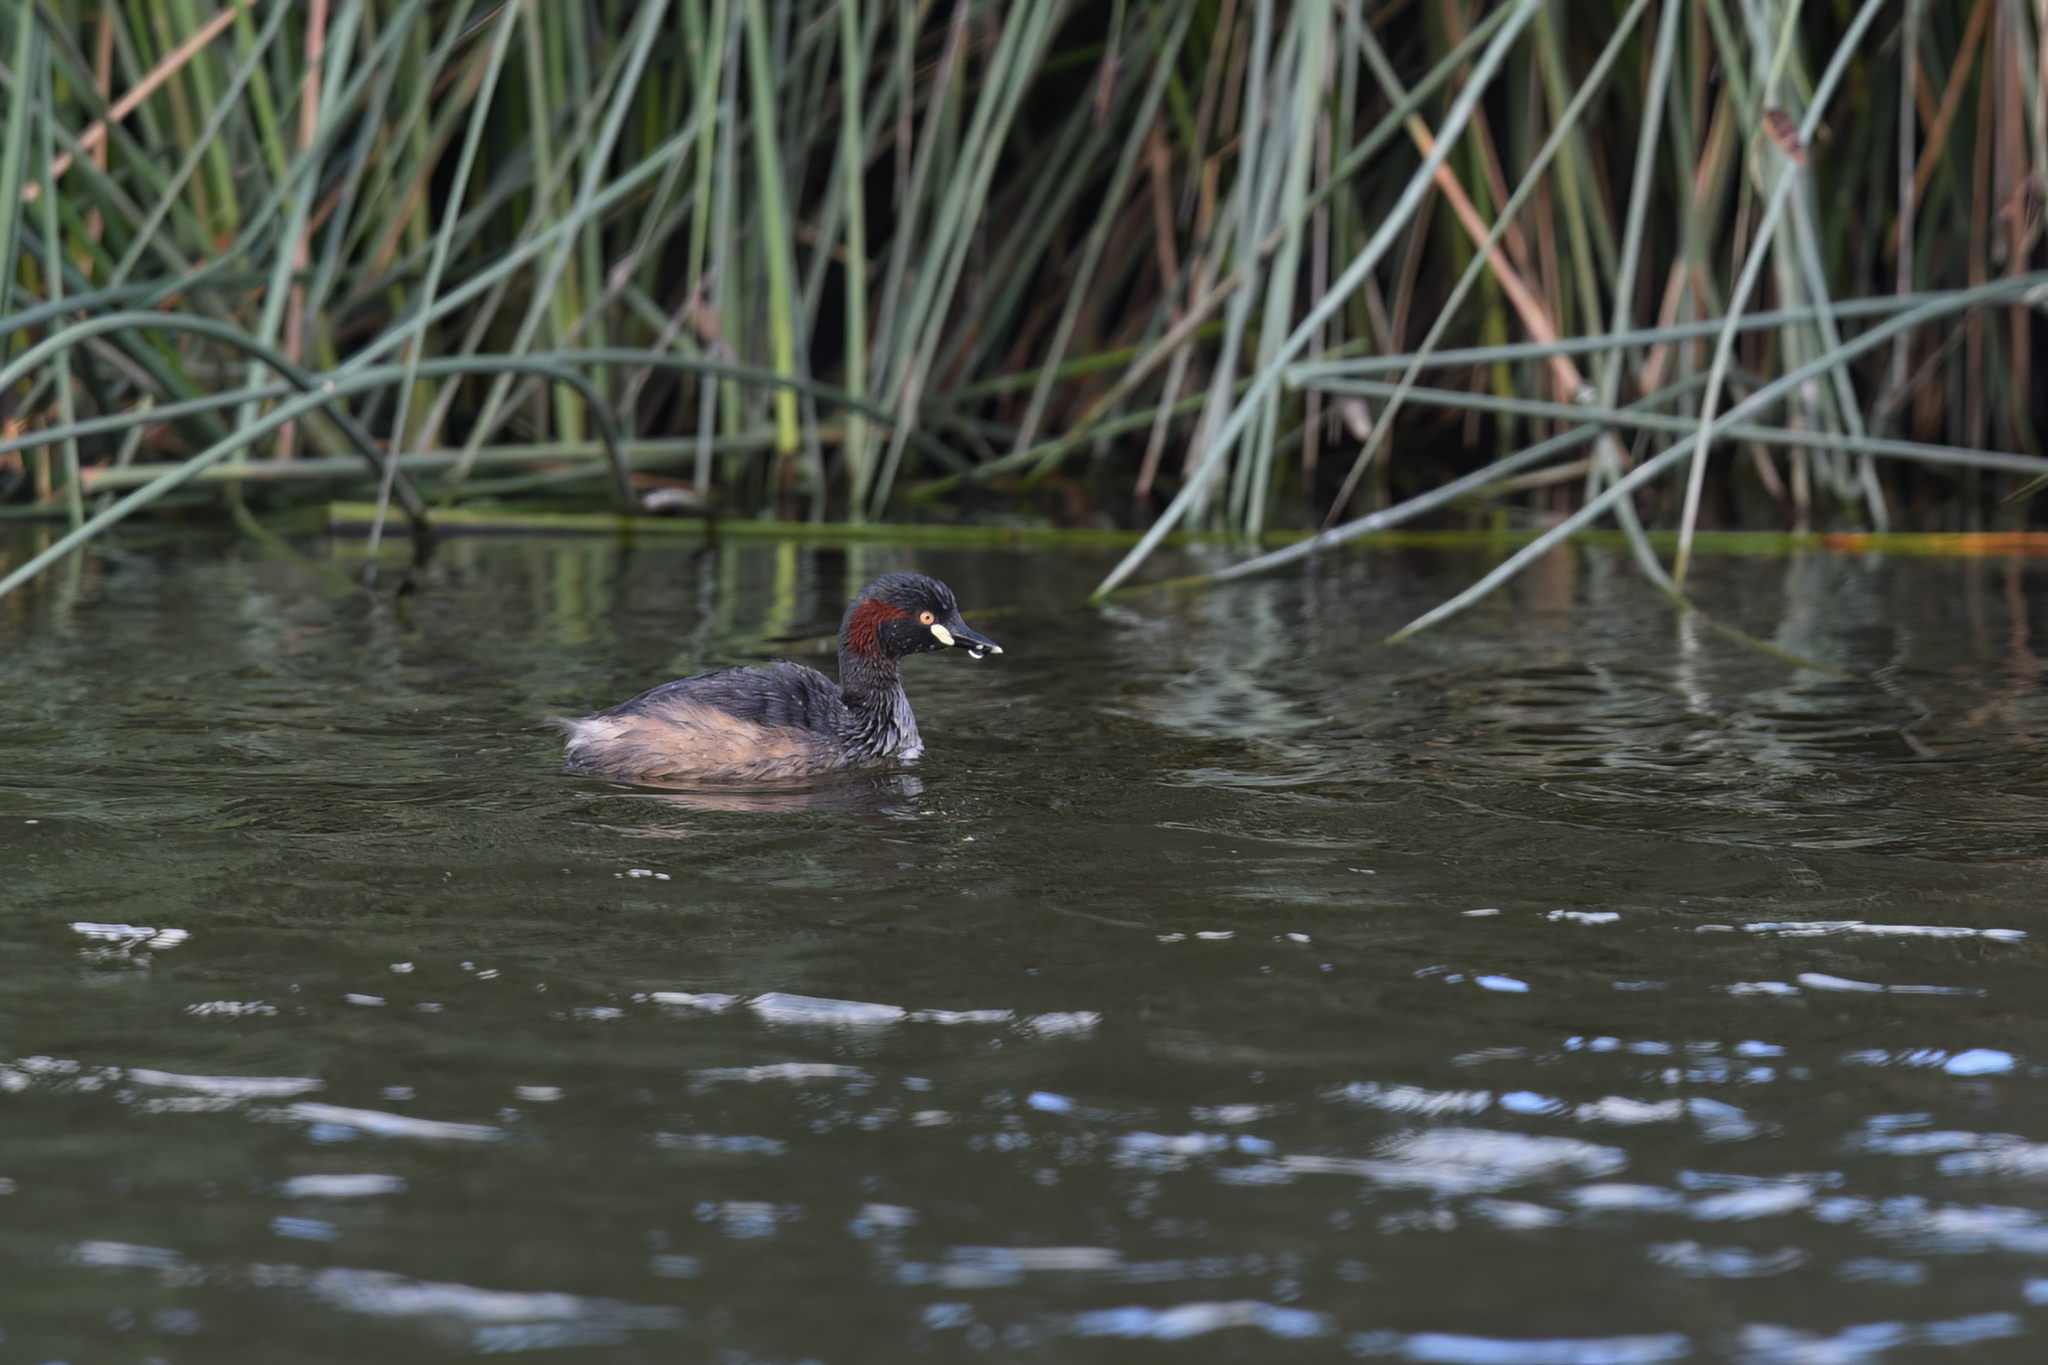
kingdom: Animalia
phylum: Chordata
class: Aves
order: Podicipediformes
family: Podicipedidae
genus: Tachybaptus
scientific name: Tachybaptus novaehollandiae
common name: Australasian grebe
